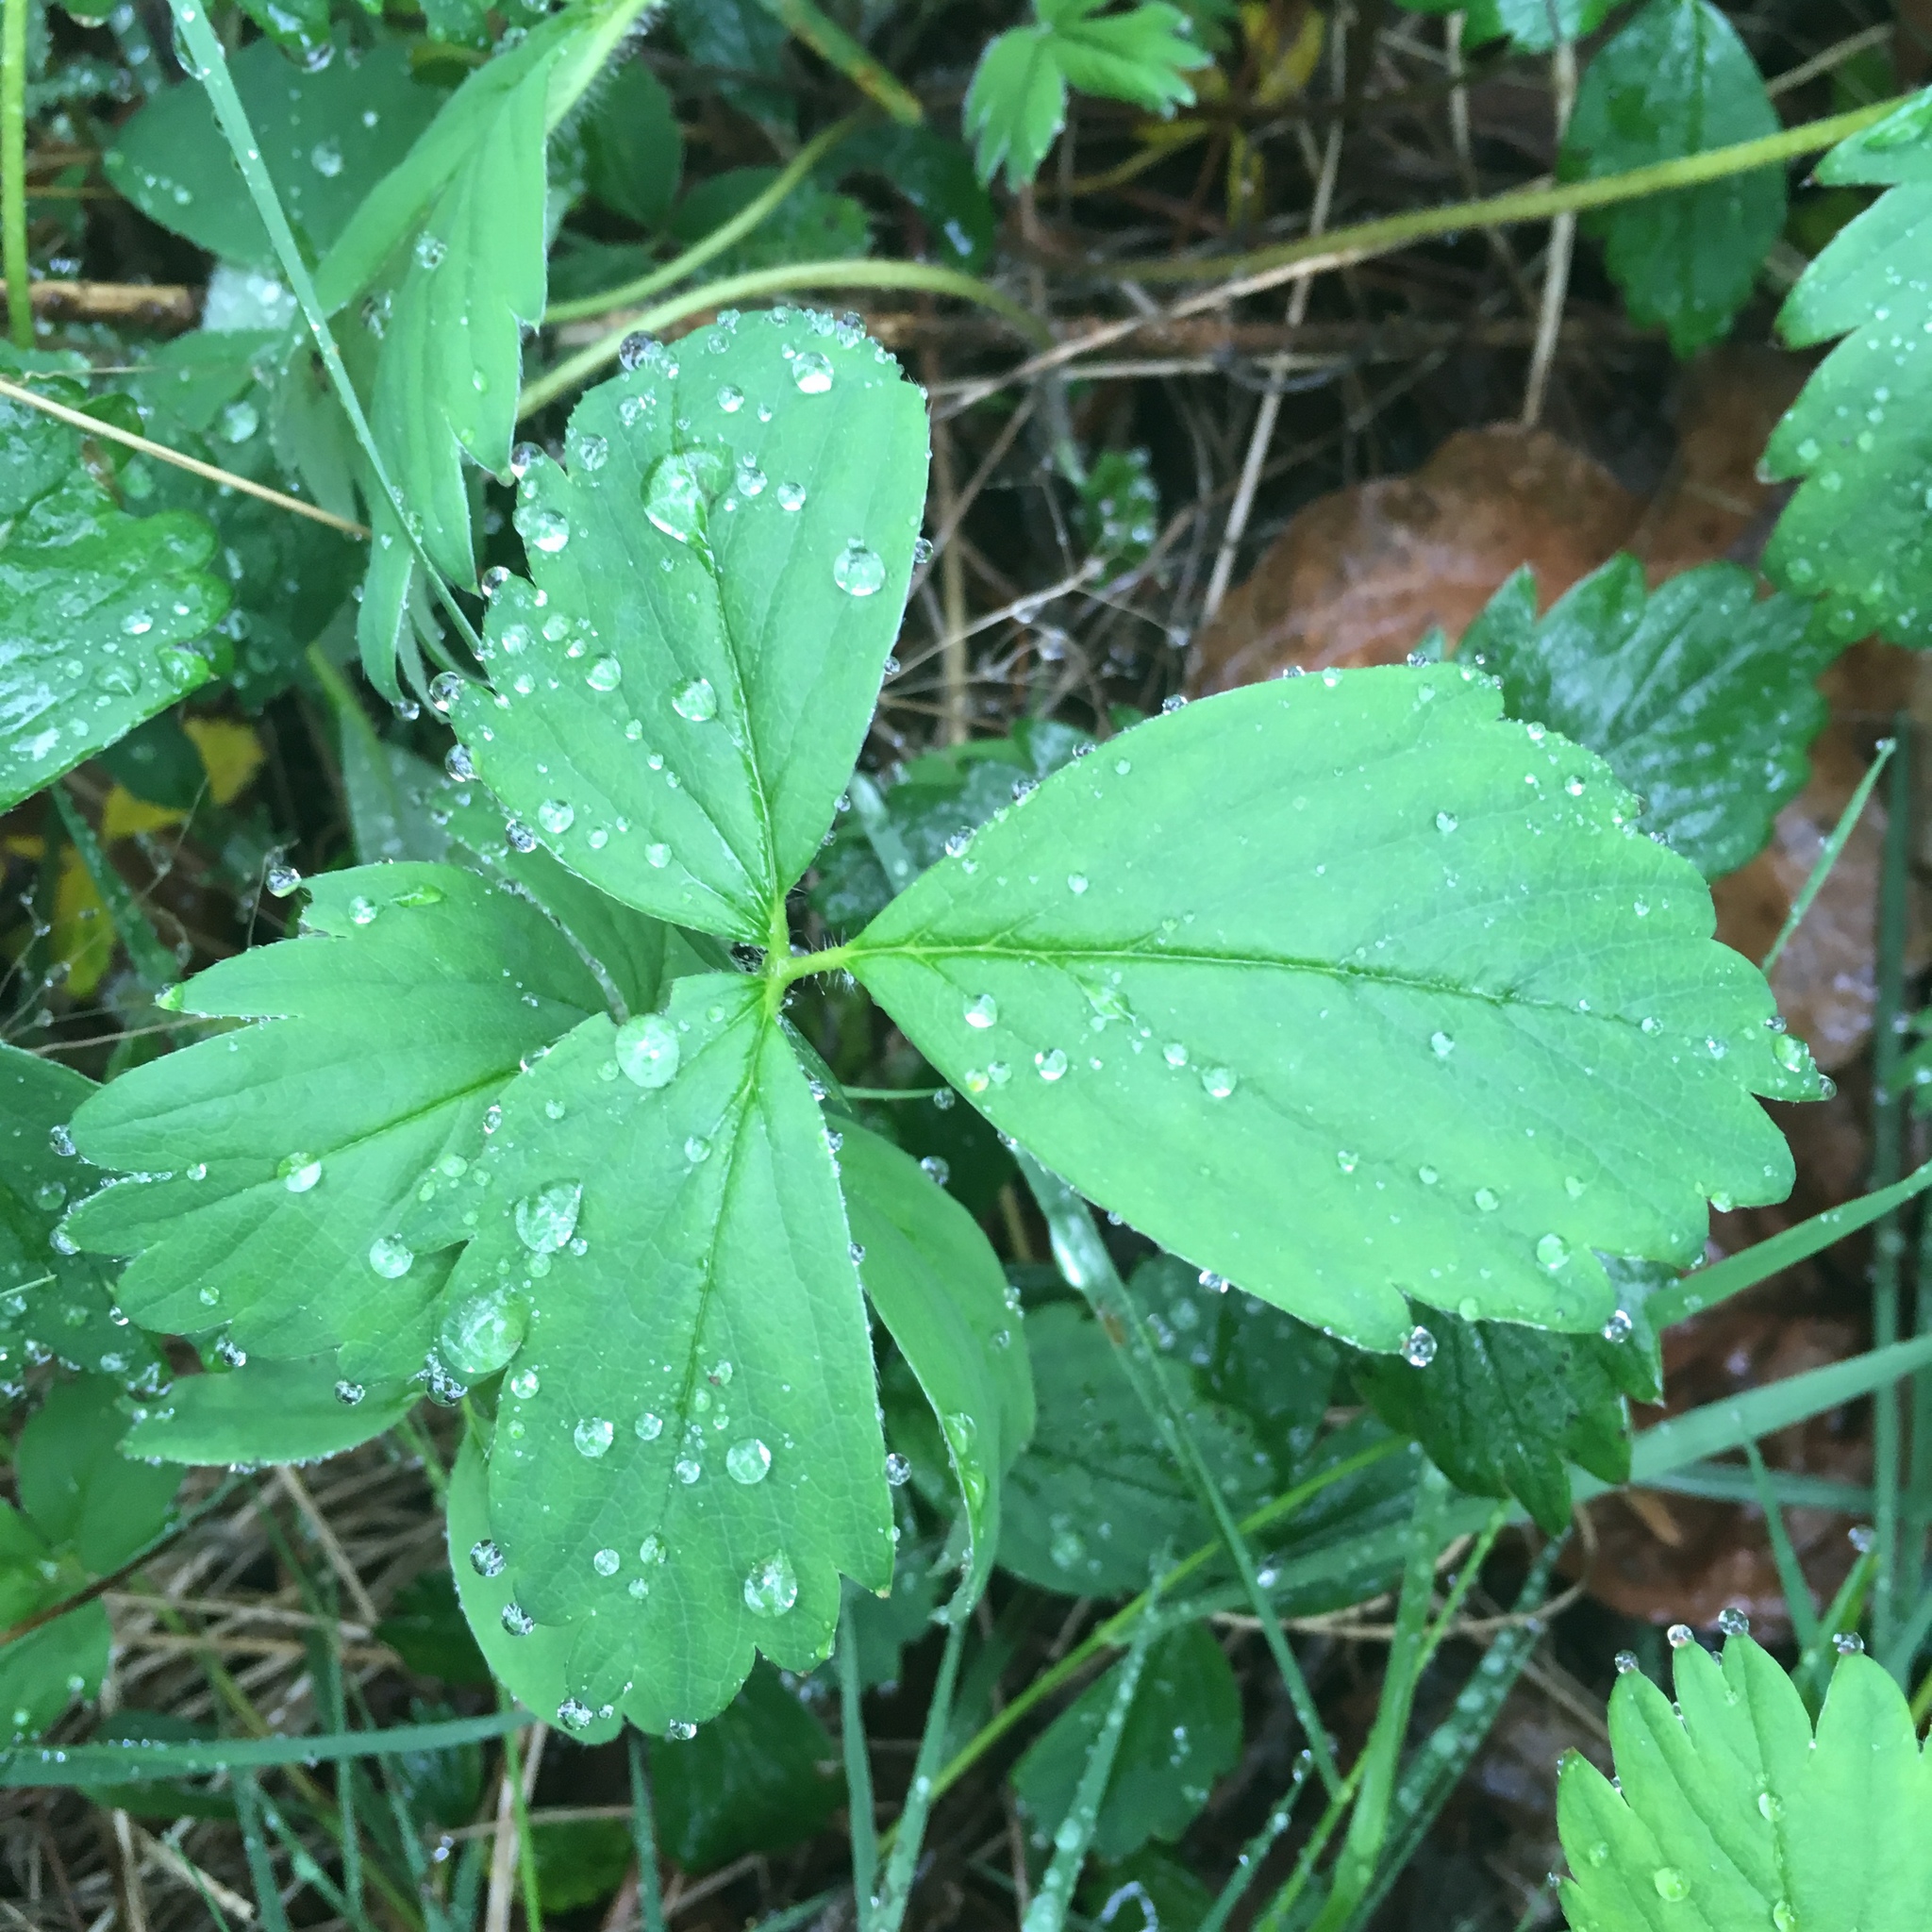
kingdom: Plantae
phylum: Tracheophyta
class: Magnoliopsida
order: Rosales
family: Rosaceae
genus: Fragaria
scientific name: Fragaria virginiana
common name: Thickleaved wild strawberry
